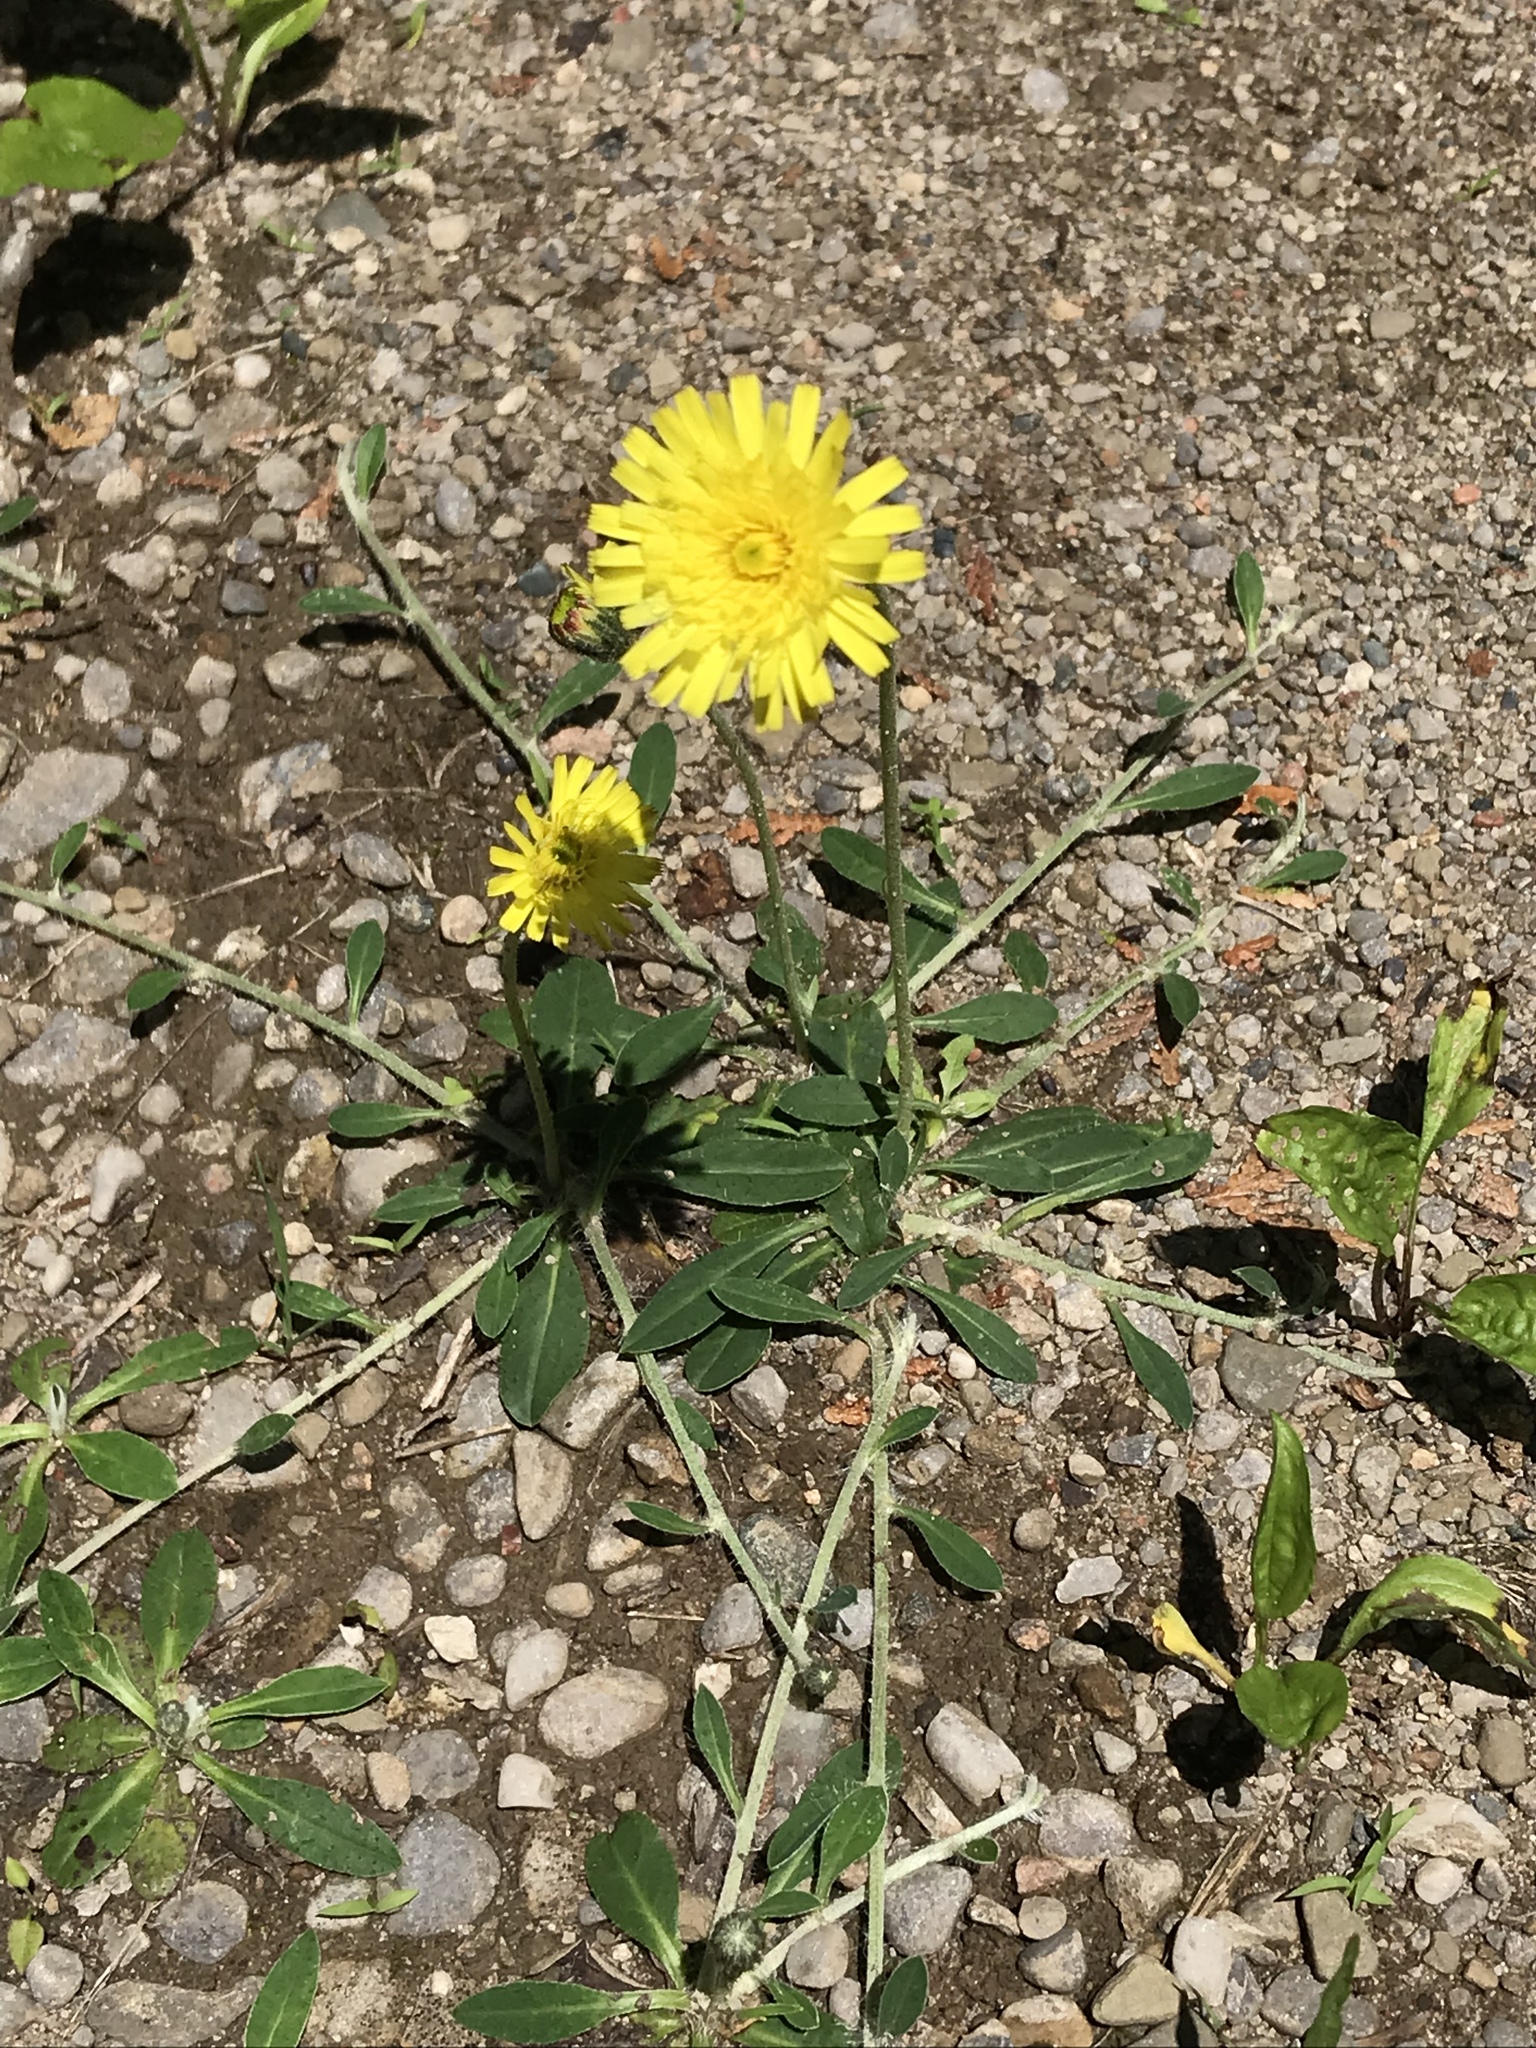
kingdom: Plantae
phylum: Tracheophyta
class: Magnoliopsida
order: Asterales
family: Asteraceae
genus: Pilosella
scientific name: Pilosella caespitosa
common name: Yellow fox-and-cubs
